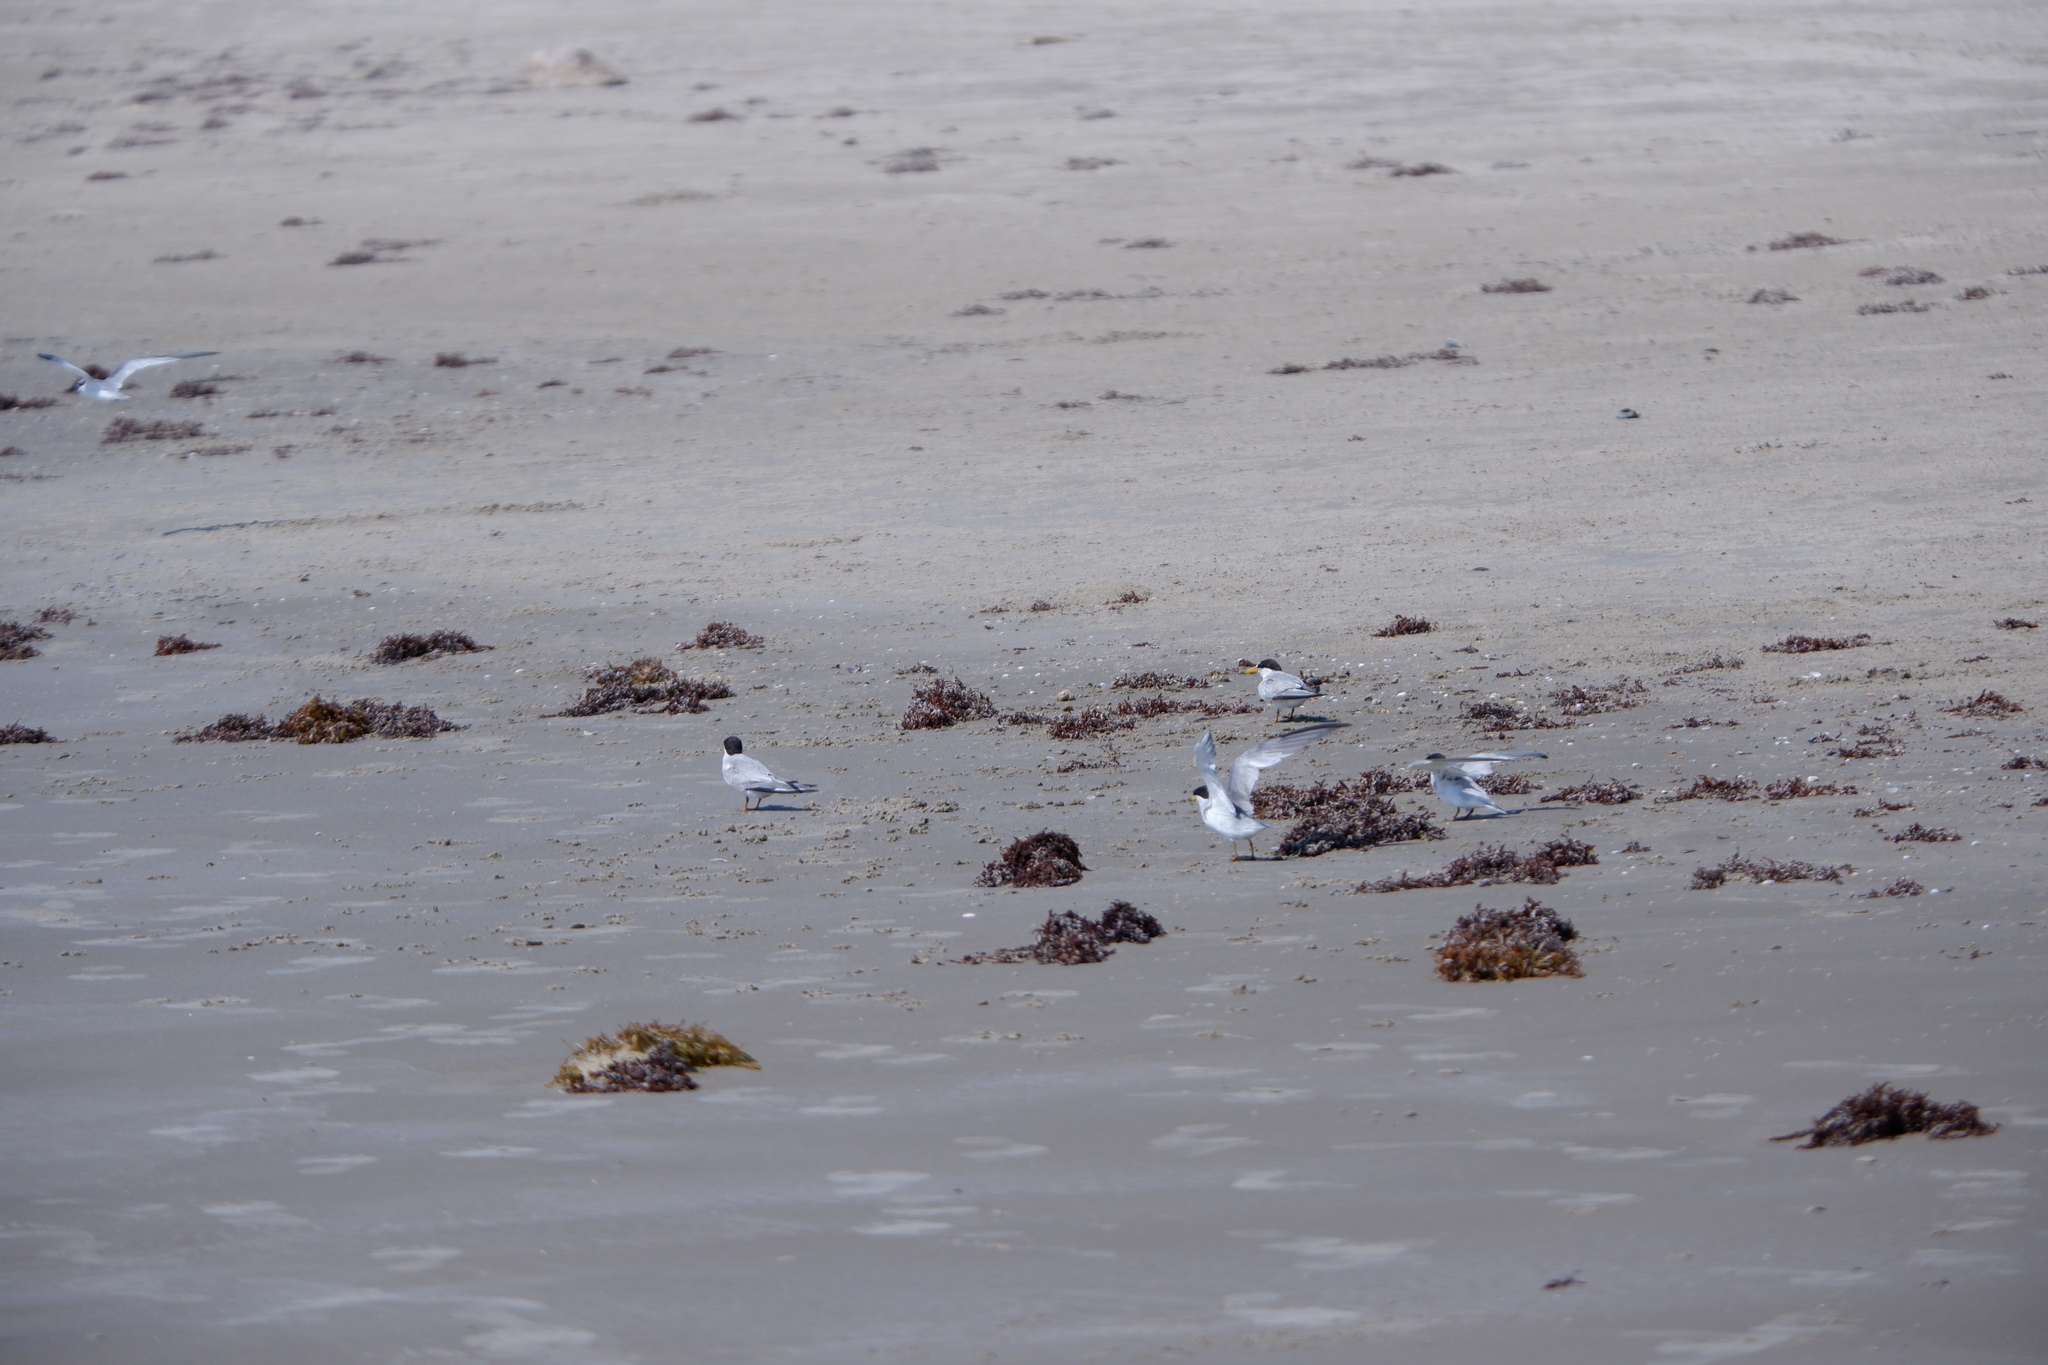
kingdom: Animalia
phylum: Chordata
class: Aves
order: Charadriiformes
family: Laridae
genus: Sternula
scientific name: Sternula antillarum
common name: Least tern
